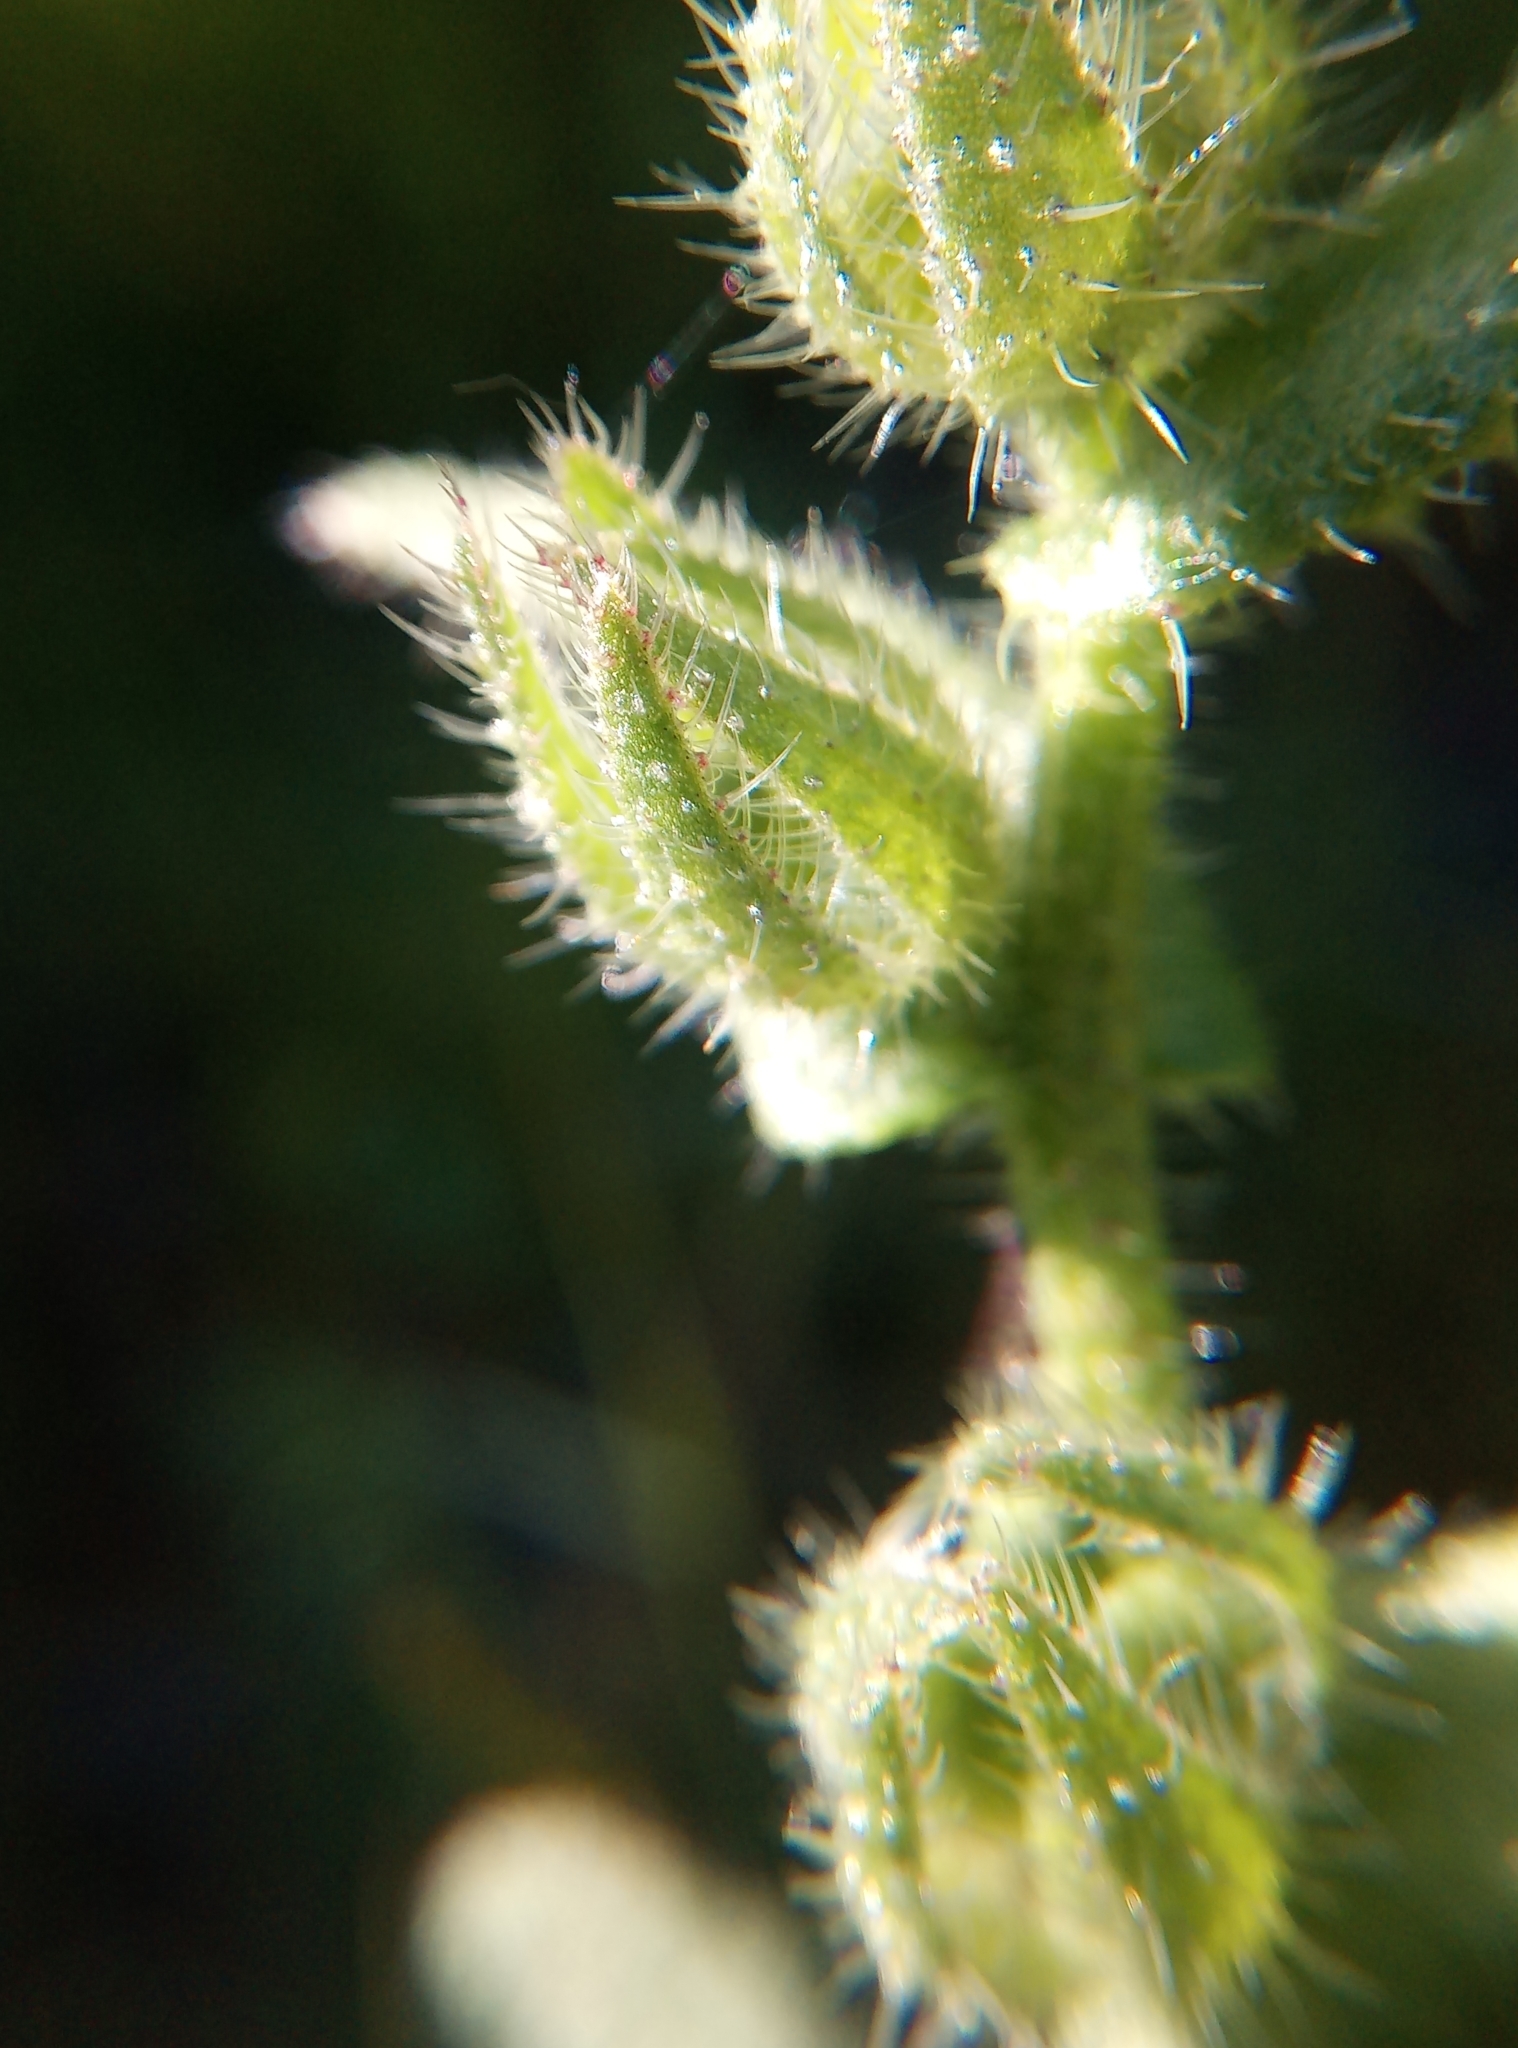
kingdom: Plantae
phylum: Tracheophyta
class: Magnoliopsida
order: Boraginales
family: Boraginaceae
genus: Lycopsis
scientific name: Lycopsis arvensis
